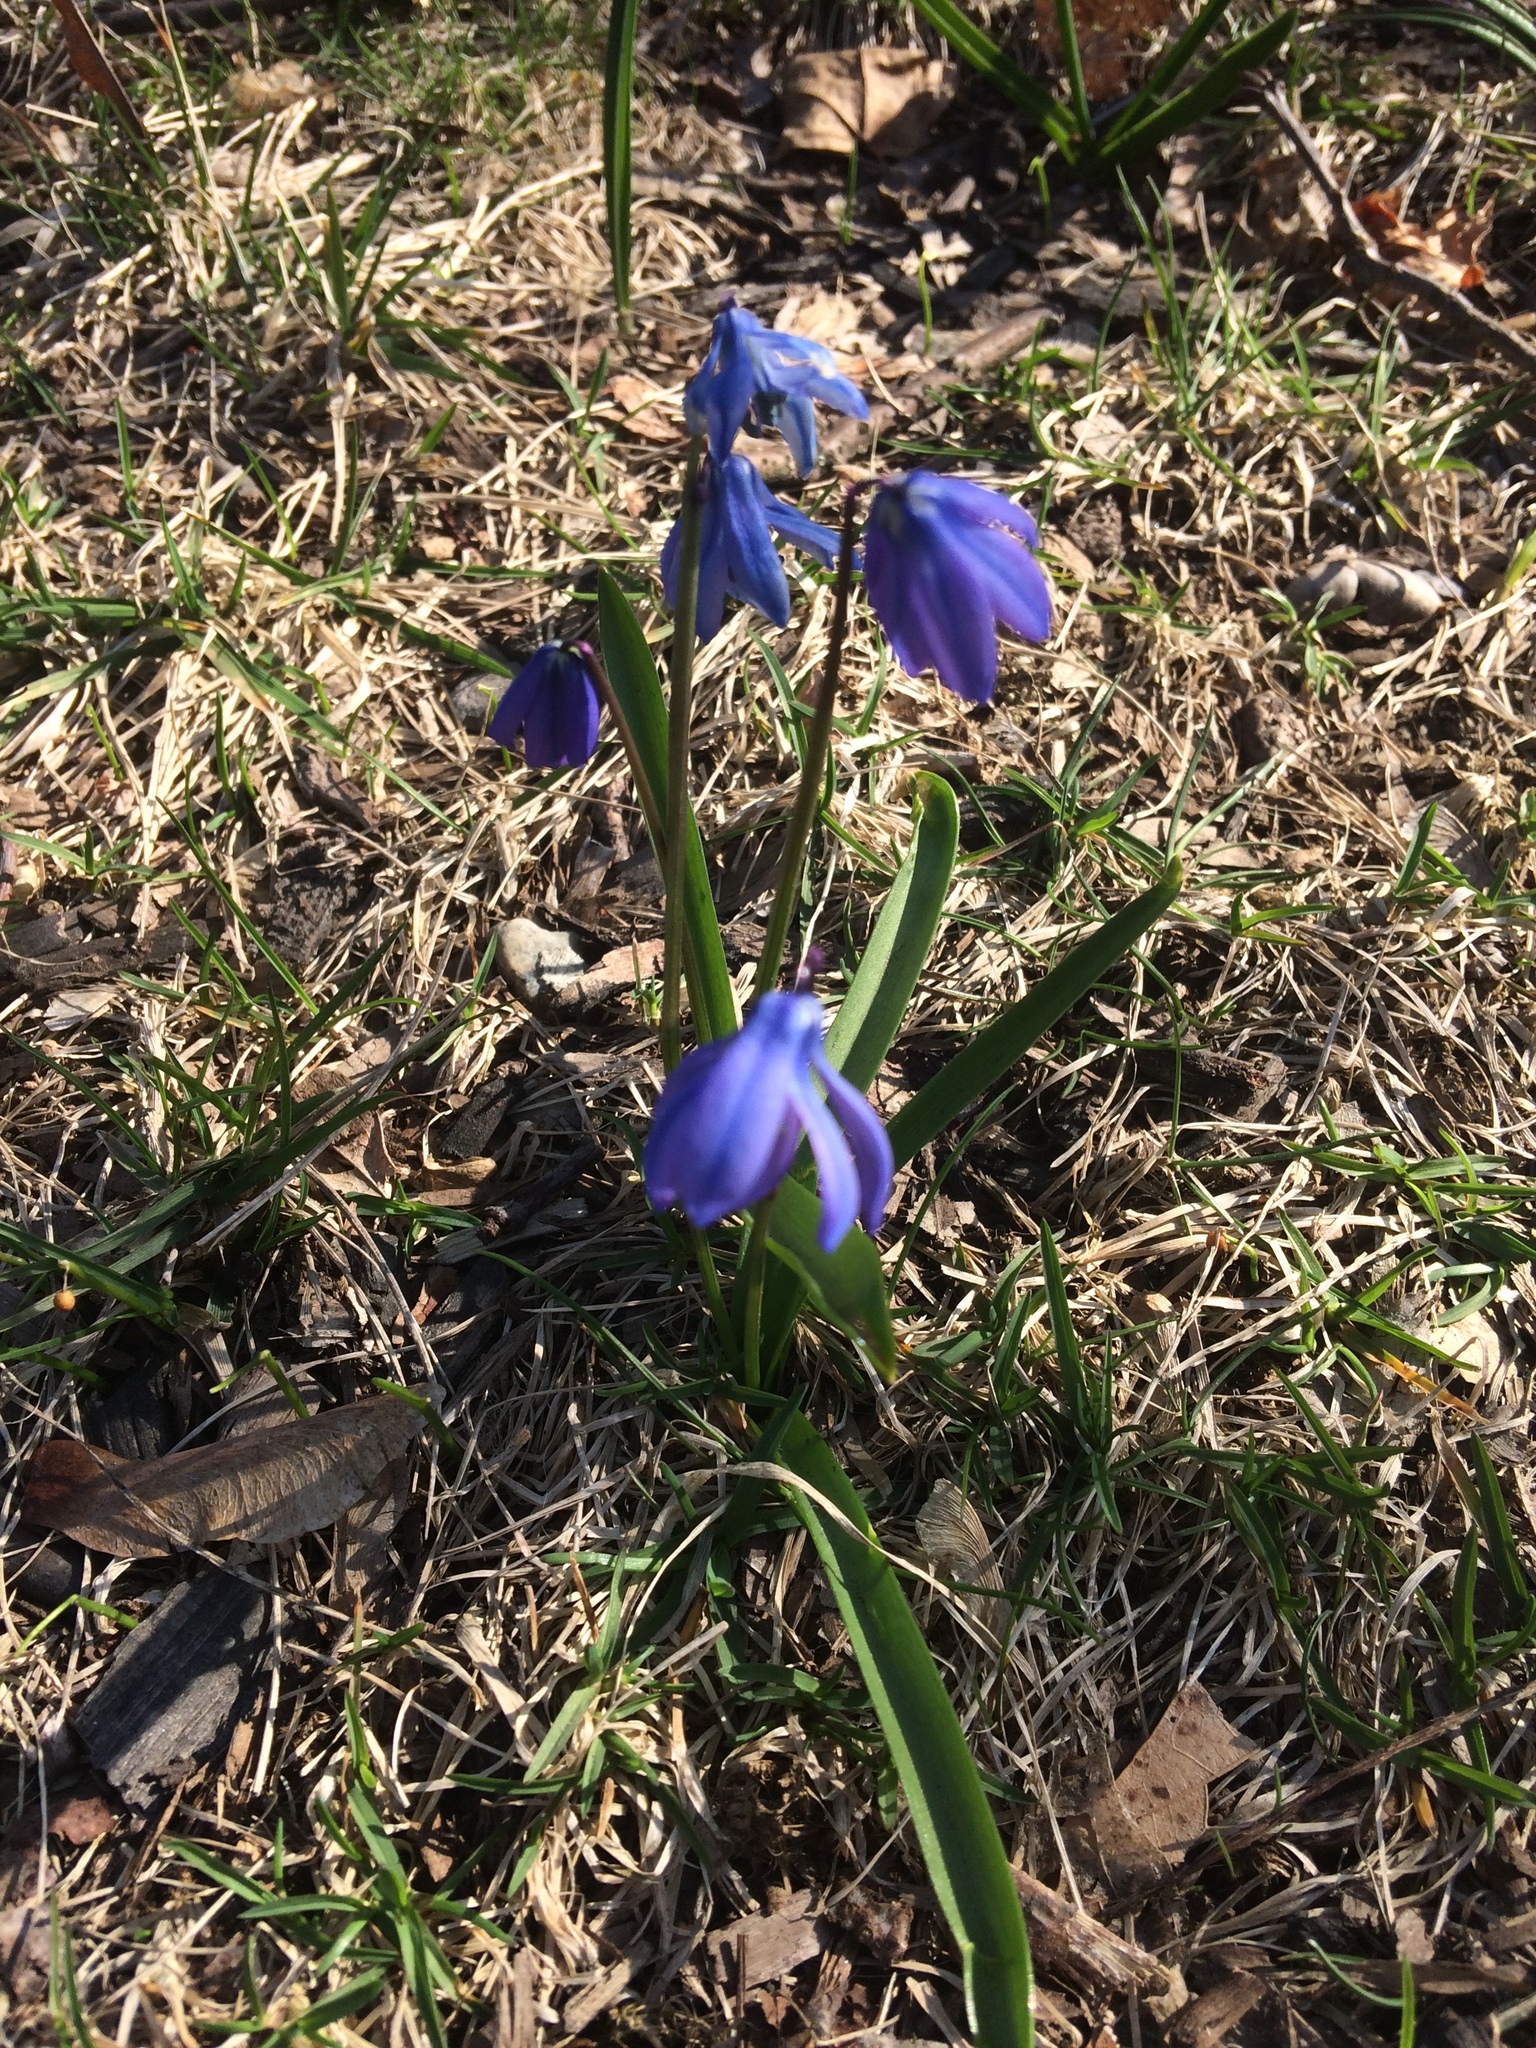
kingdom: Plantae
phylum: Tracheophyta
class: Liliopsida
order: Asparagales
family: Asparagaceae
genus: Scilla
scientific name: Scilla siberica
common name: Siberian squill
